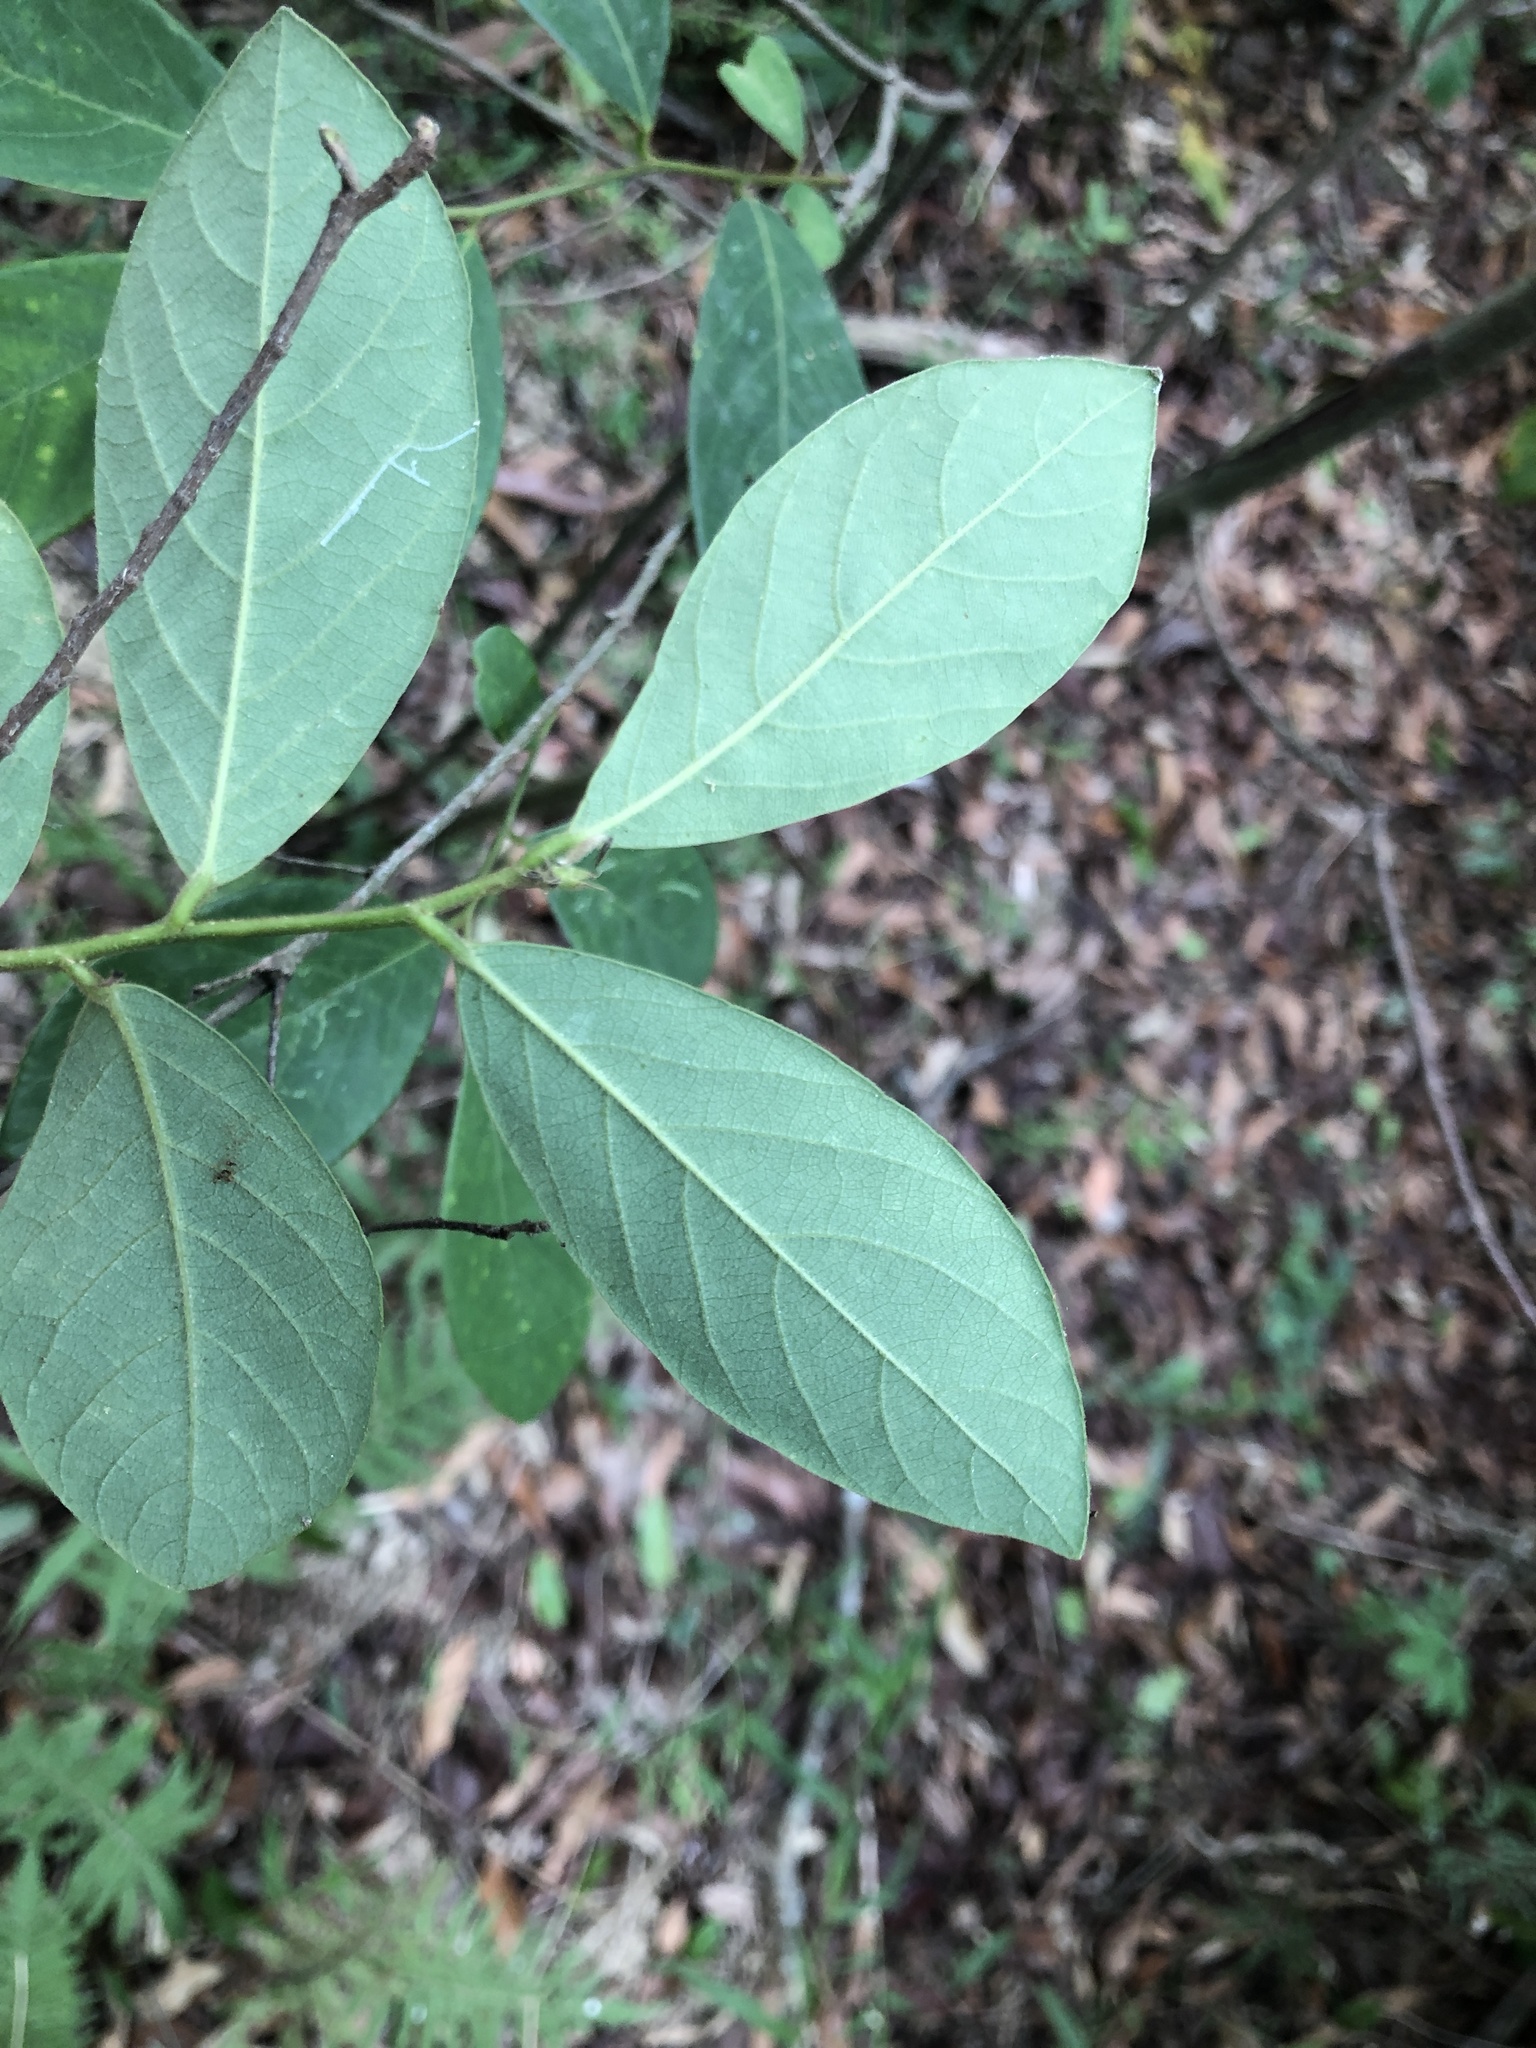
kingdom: Plantae
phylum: Tracheophyta
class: Magnoliopsida
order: Malpighiales
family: Phyllanthaceae
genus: Bridelia
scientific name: Bridelia tomentosa
